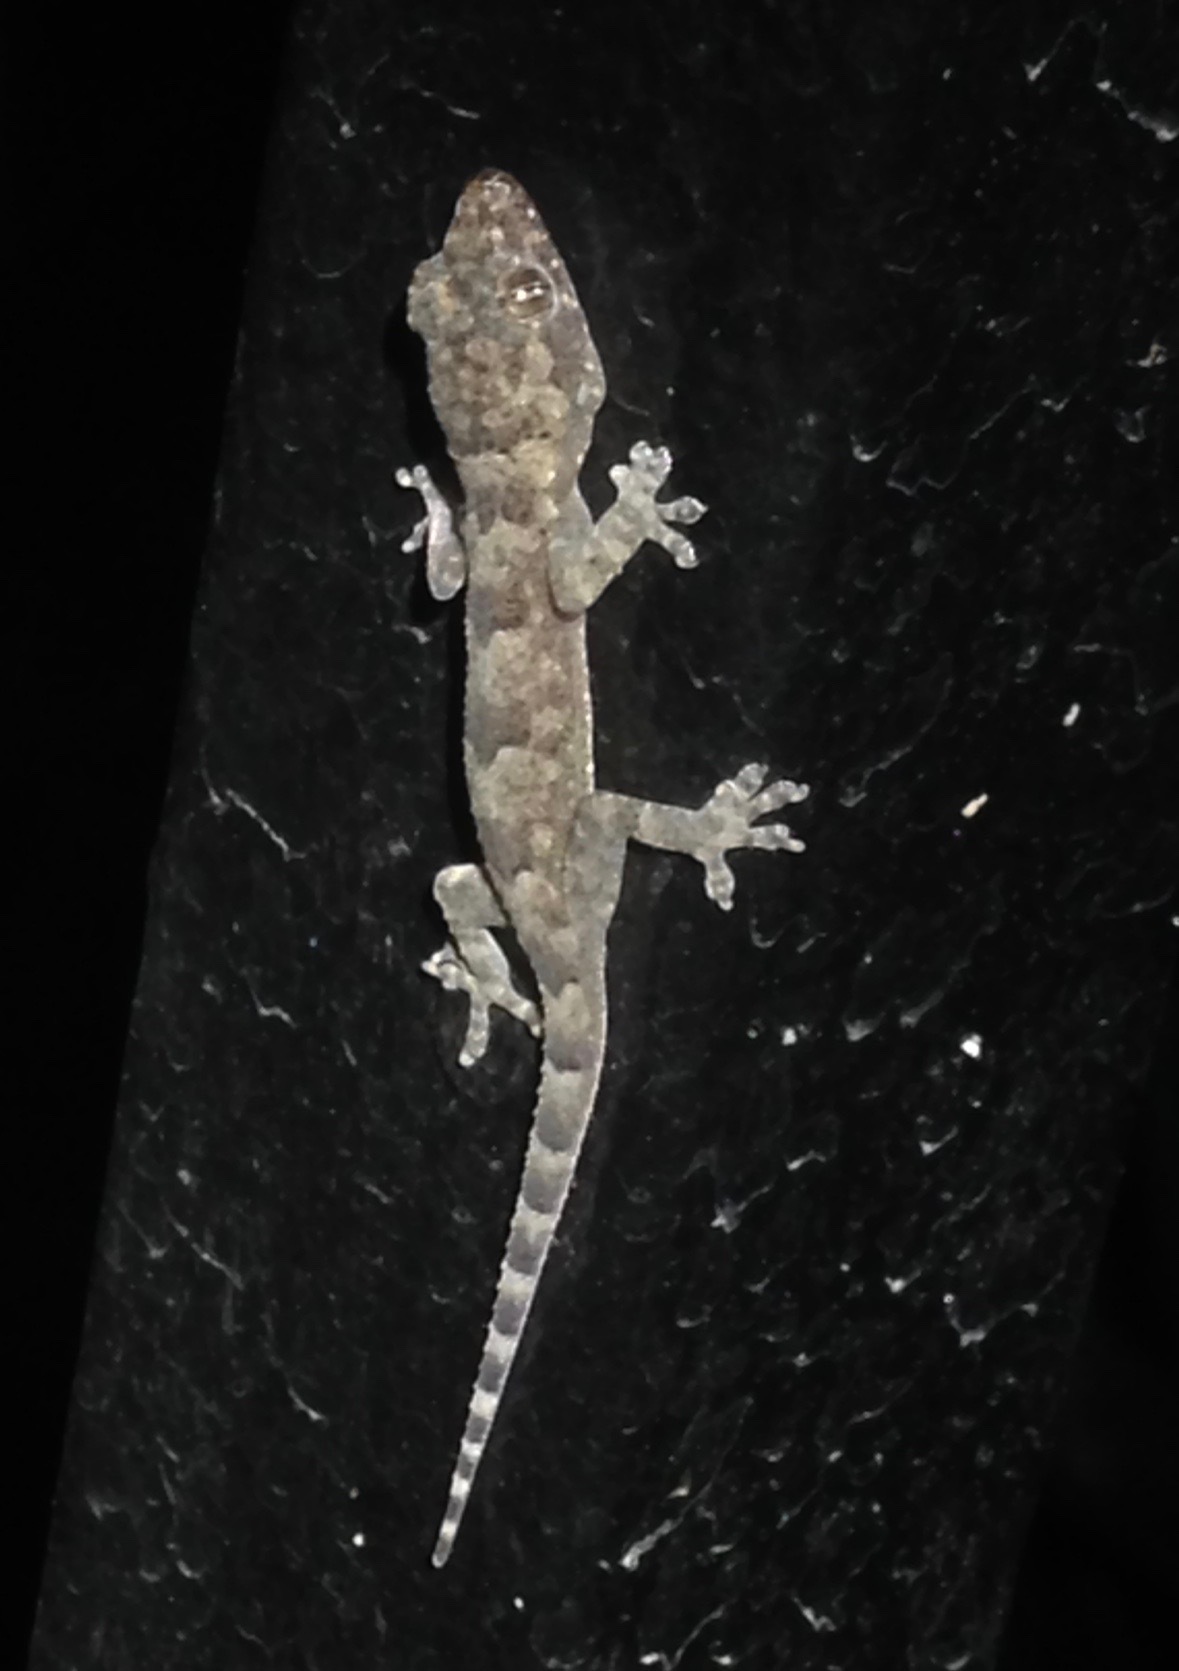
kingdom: Animalia
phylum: Chordata
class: Squamata
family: Gekkonidae
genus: Hemidactylus
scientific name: Hemidactylus mabouia
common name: House gecko
